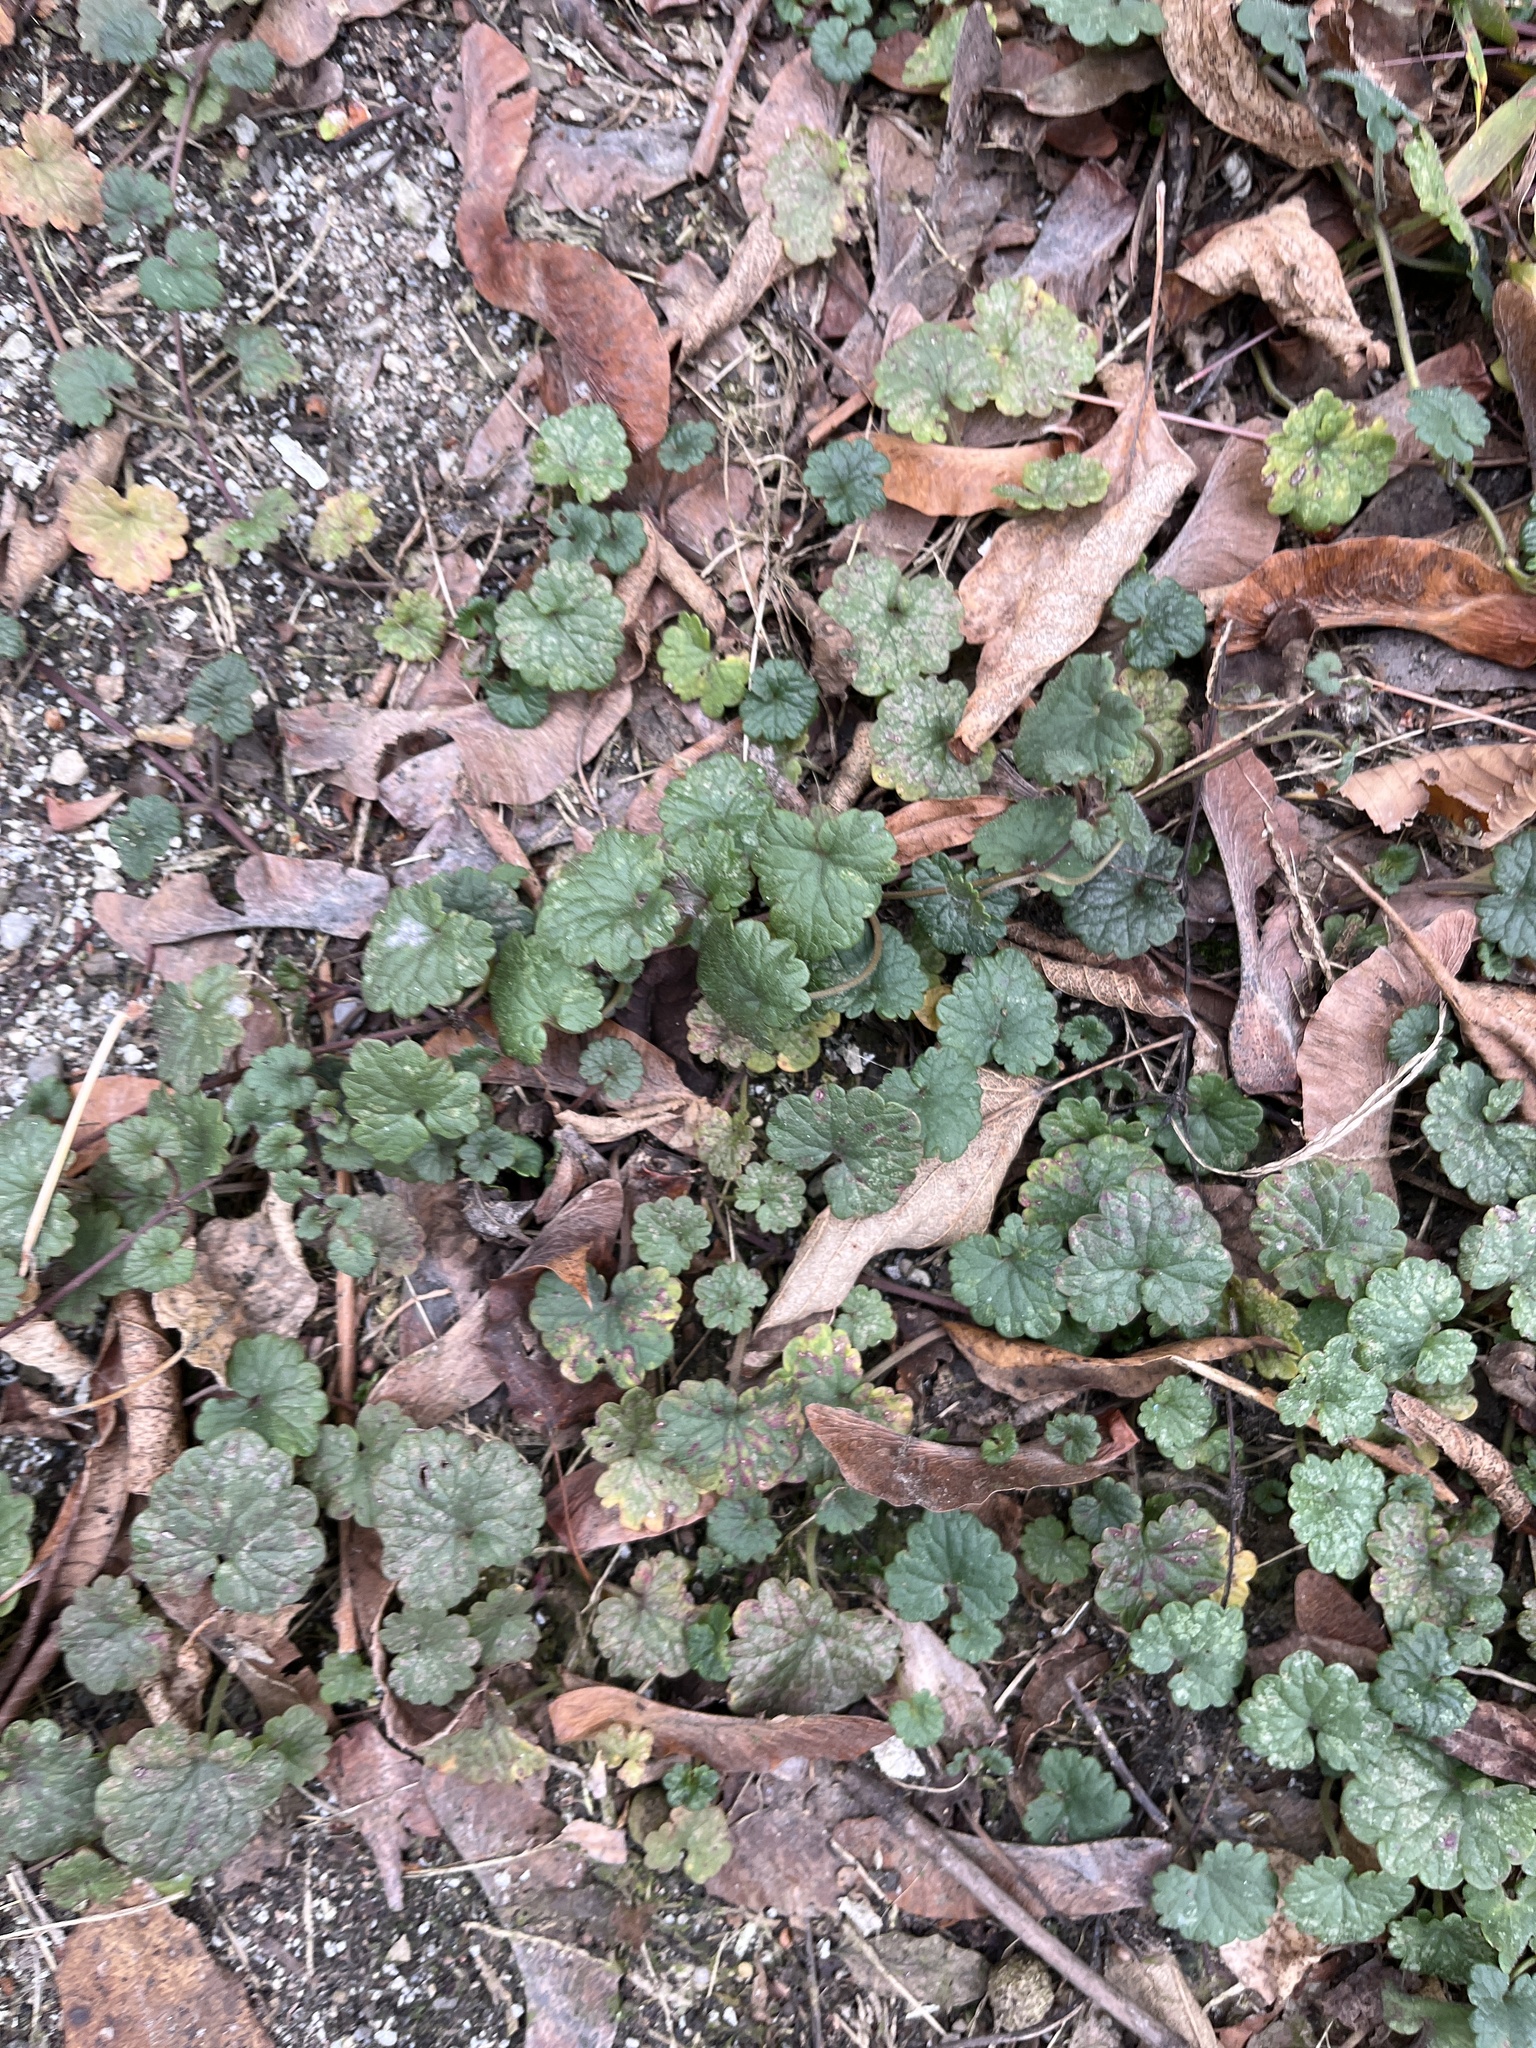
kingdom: Plantae
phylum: Tracheophyta
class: Magnoliopsida
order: Lamiales
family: Lamiaceae
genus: Glechoma
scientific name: Glechoma hederacea
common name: Ground ivy
